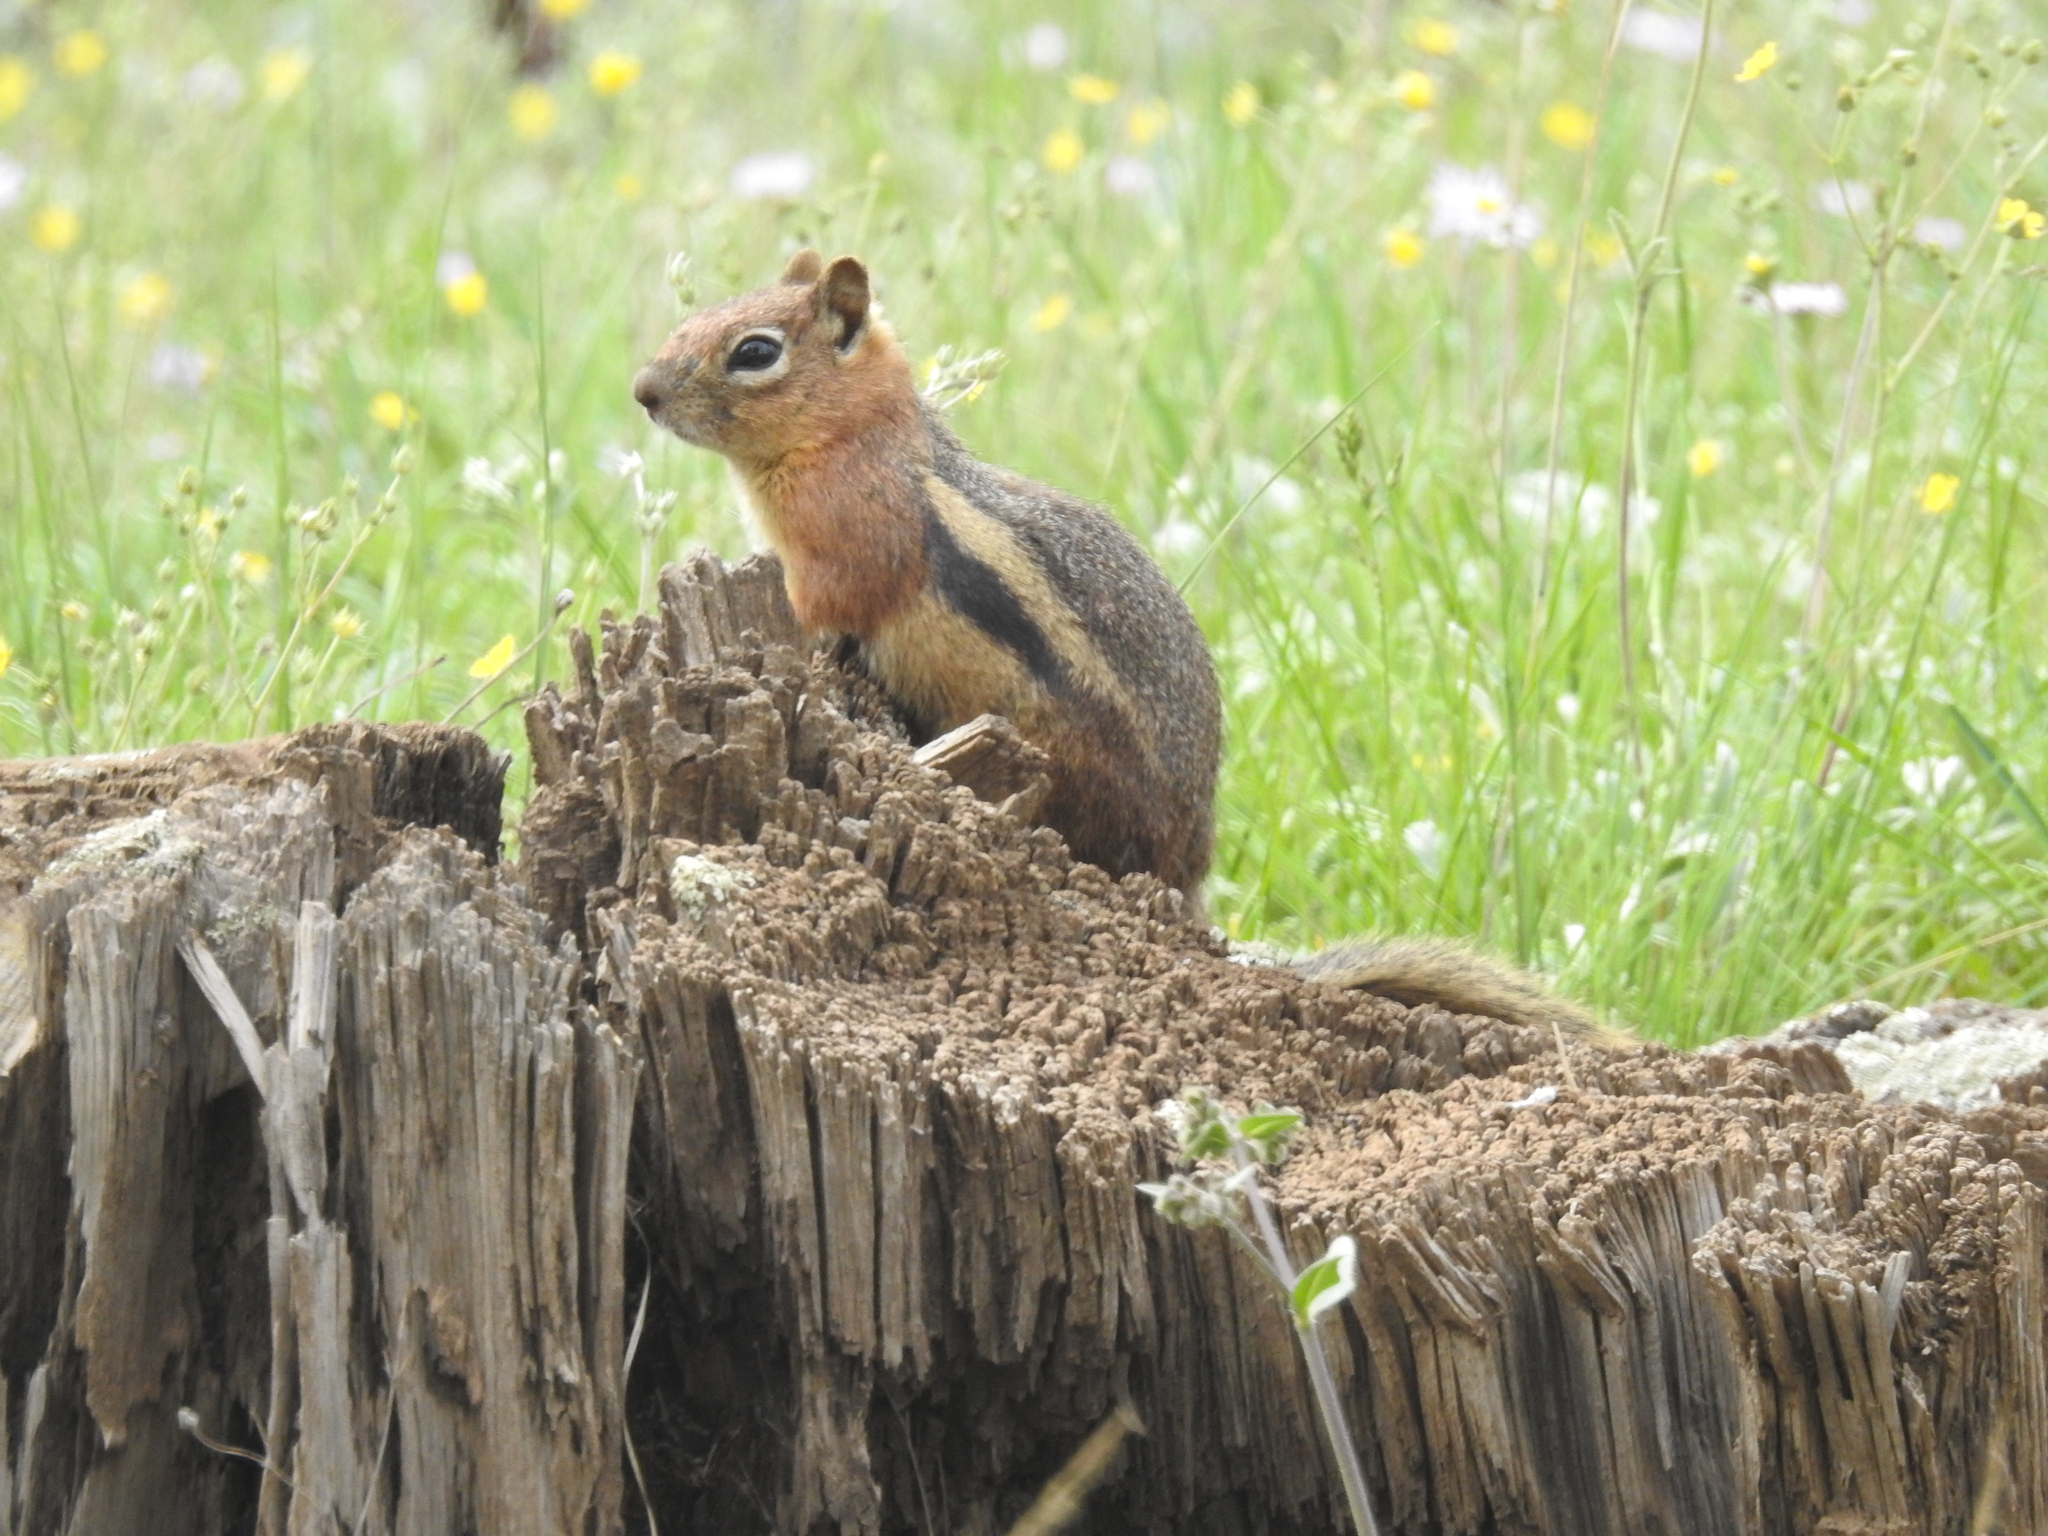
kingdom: Animalia
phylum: Chordata
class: Mammalia
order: Rodentia
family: Sciuridae
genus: Callospermophilus
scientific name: Callospermophilus lateralis
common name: Golden-mantled ground squirrel
